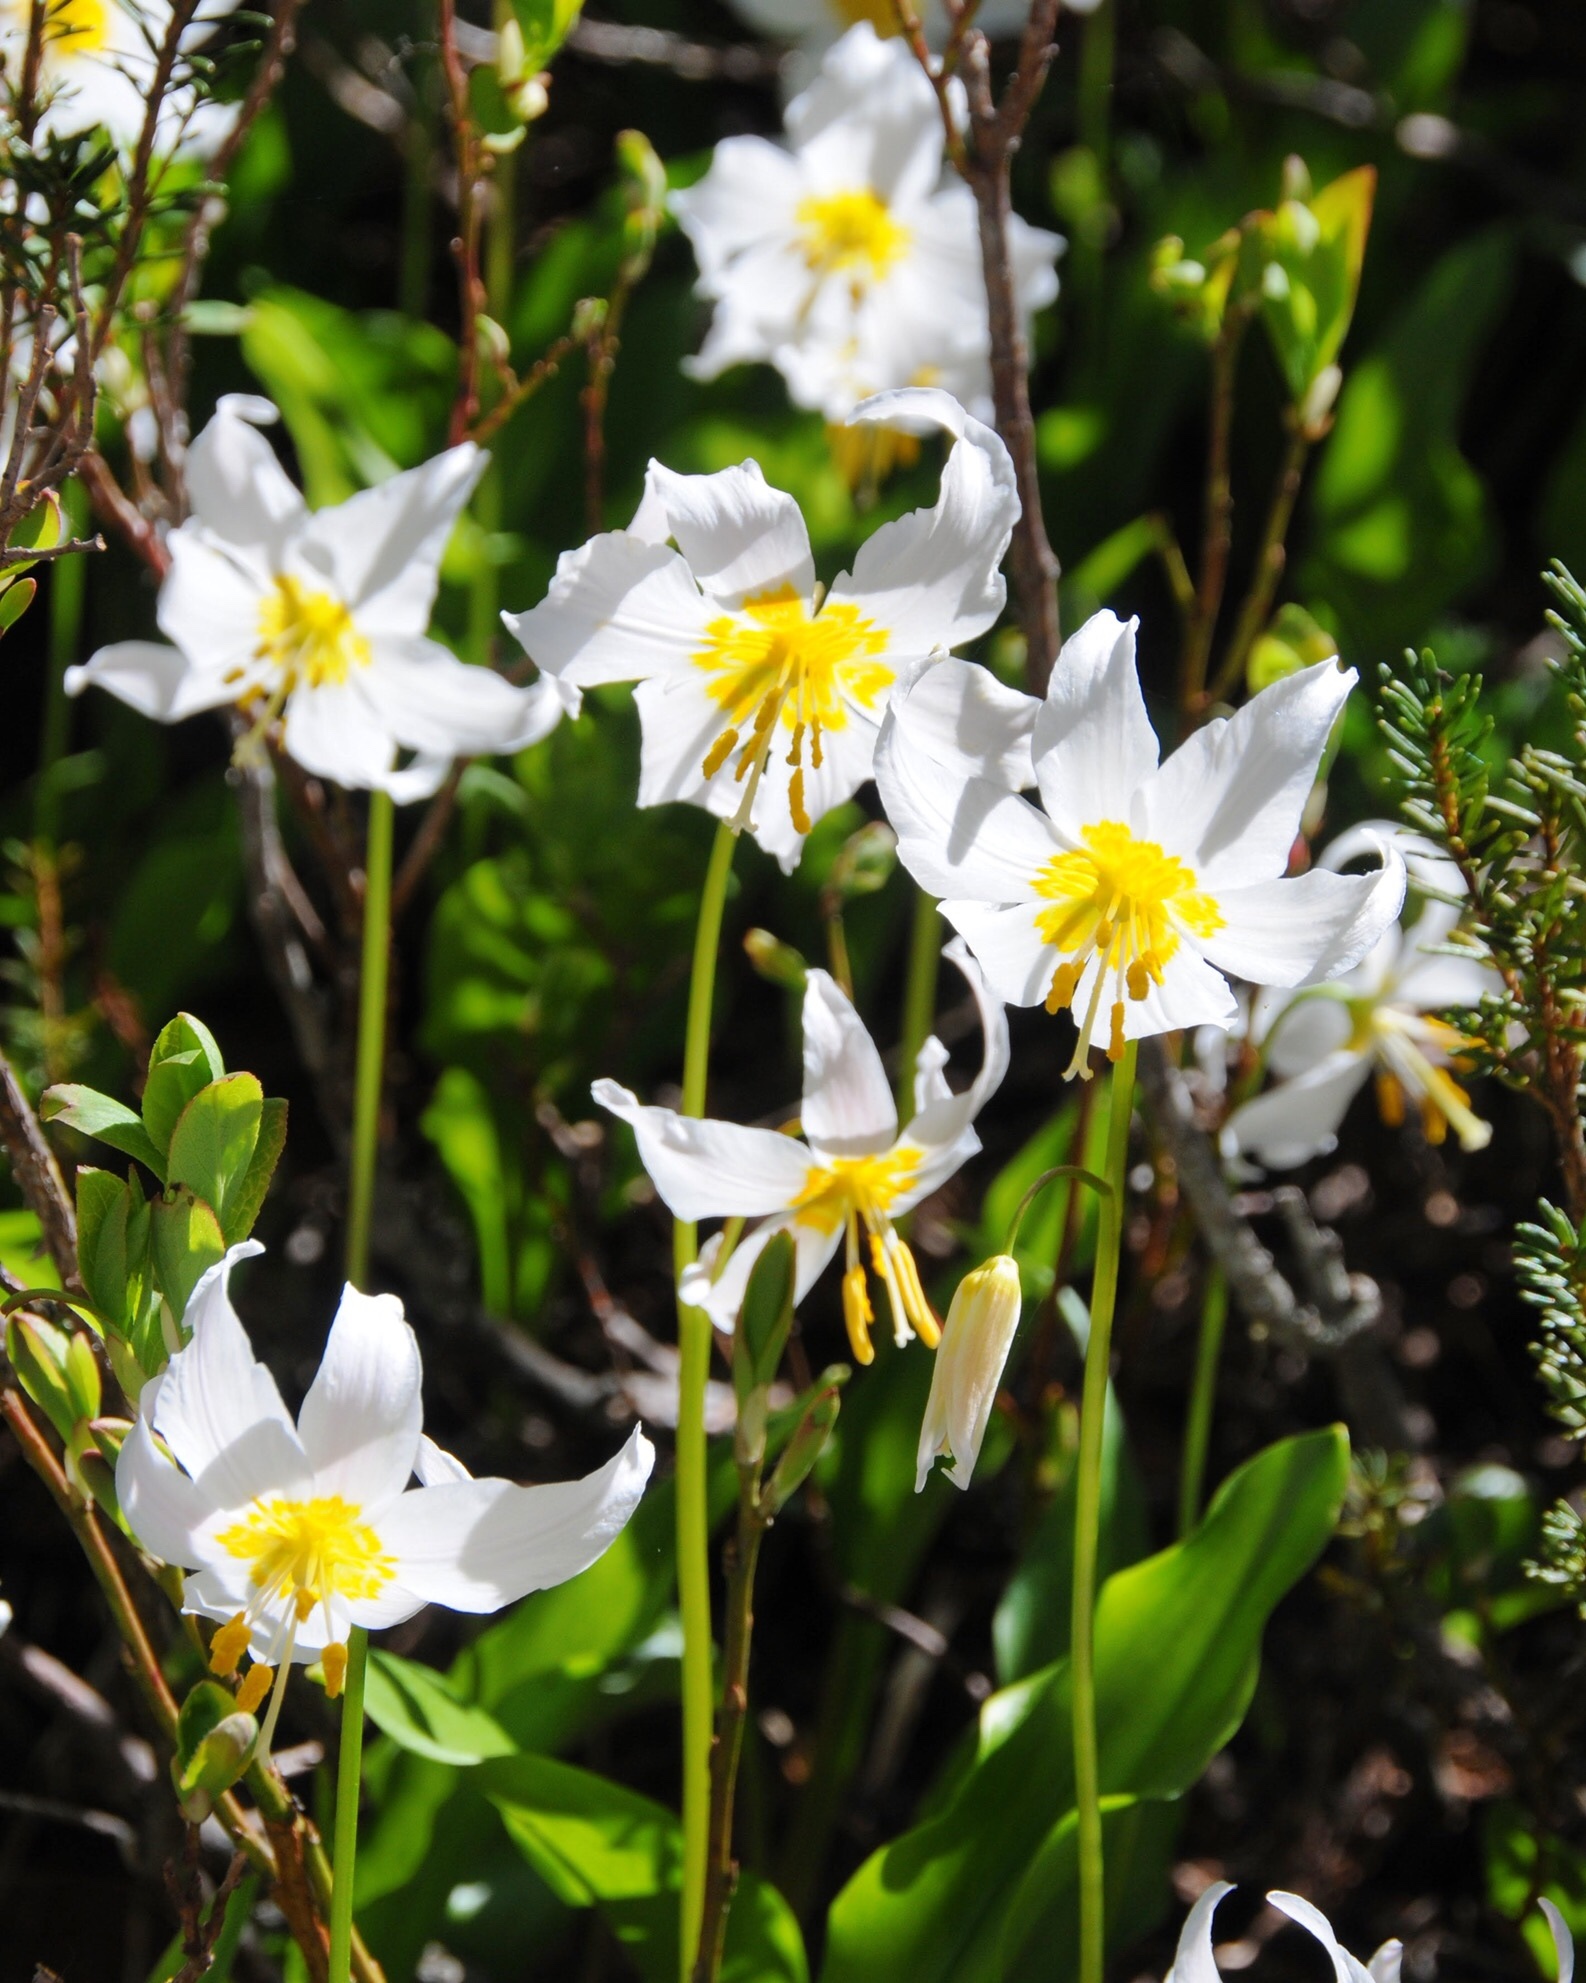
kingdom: Plantae
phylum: Tracheophyta
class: Liliopsida
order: Liliales
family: Liliaceae
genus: Erythronium
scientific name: Erythronium montanum
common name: Avalanche lily
